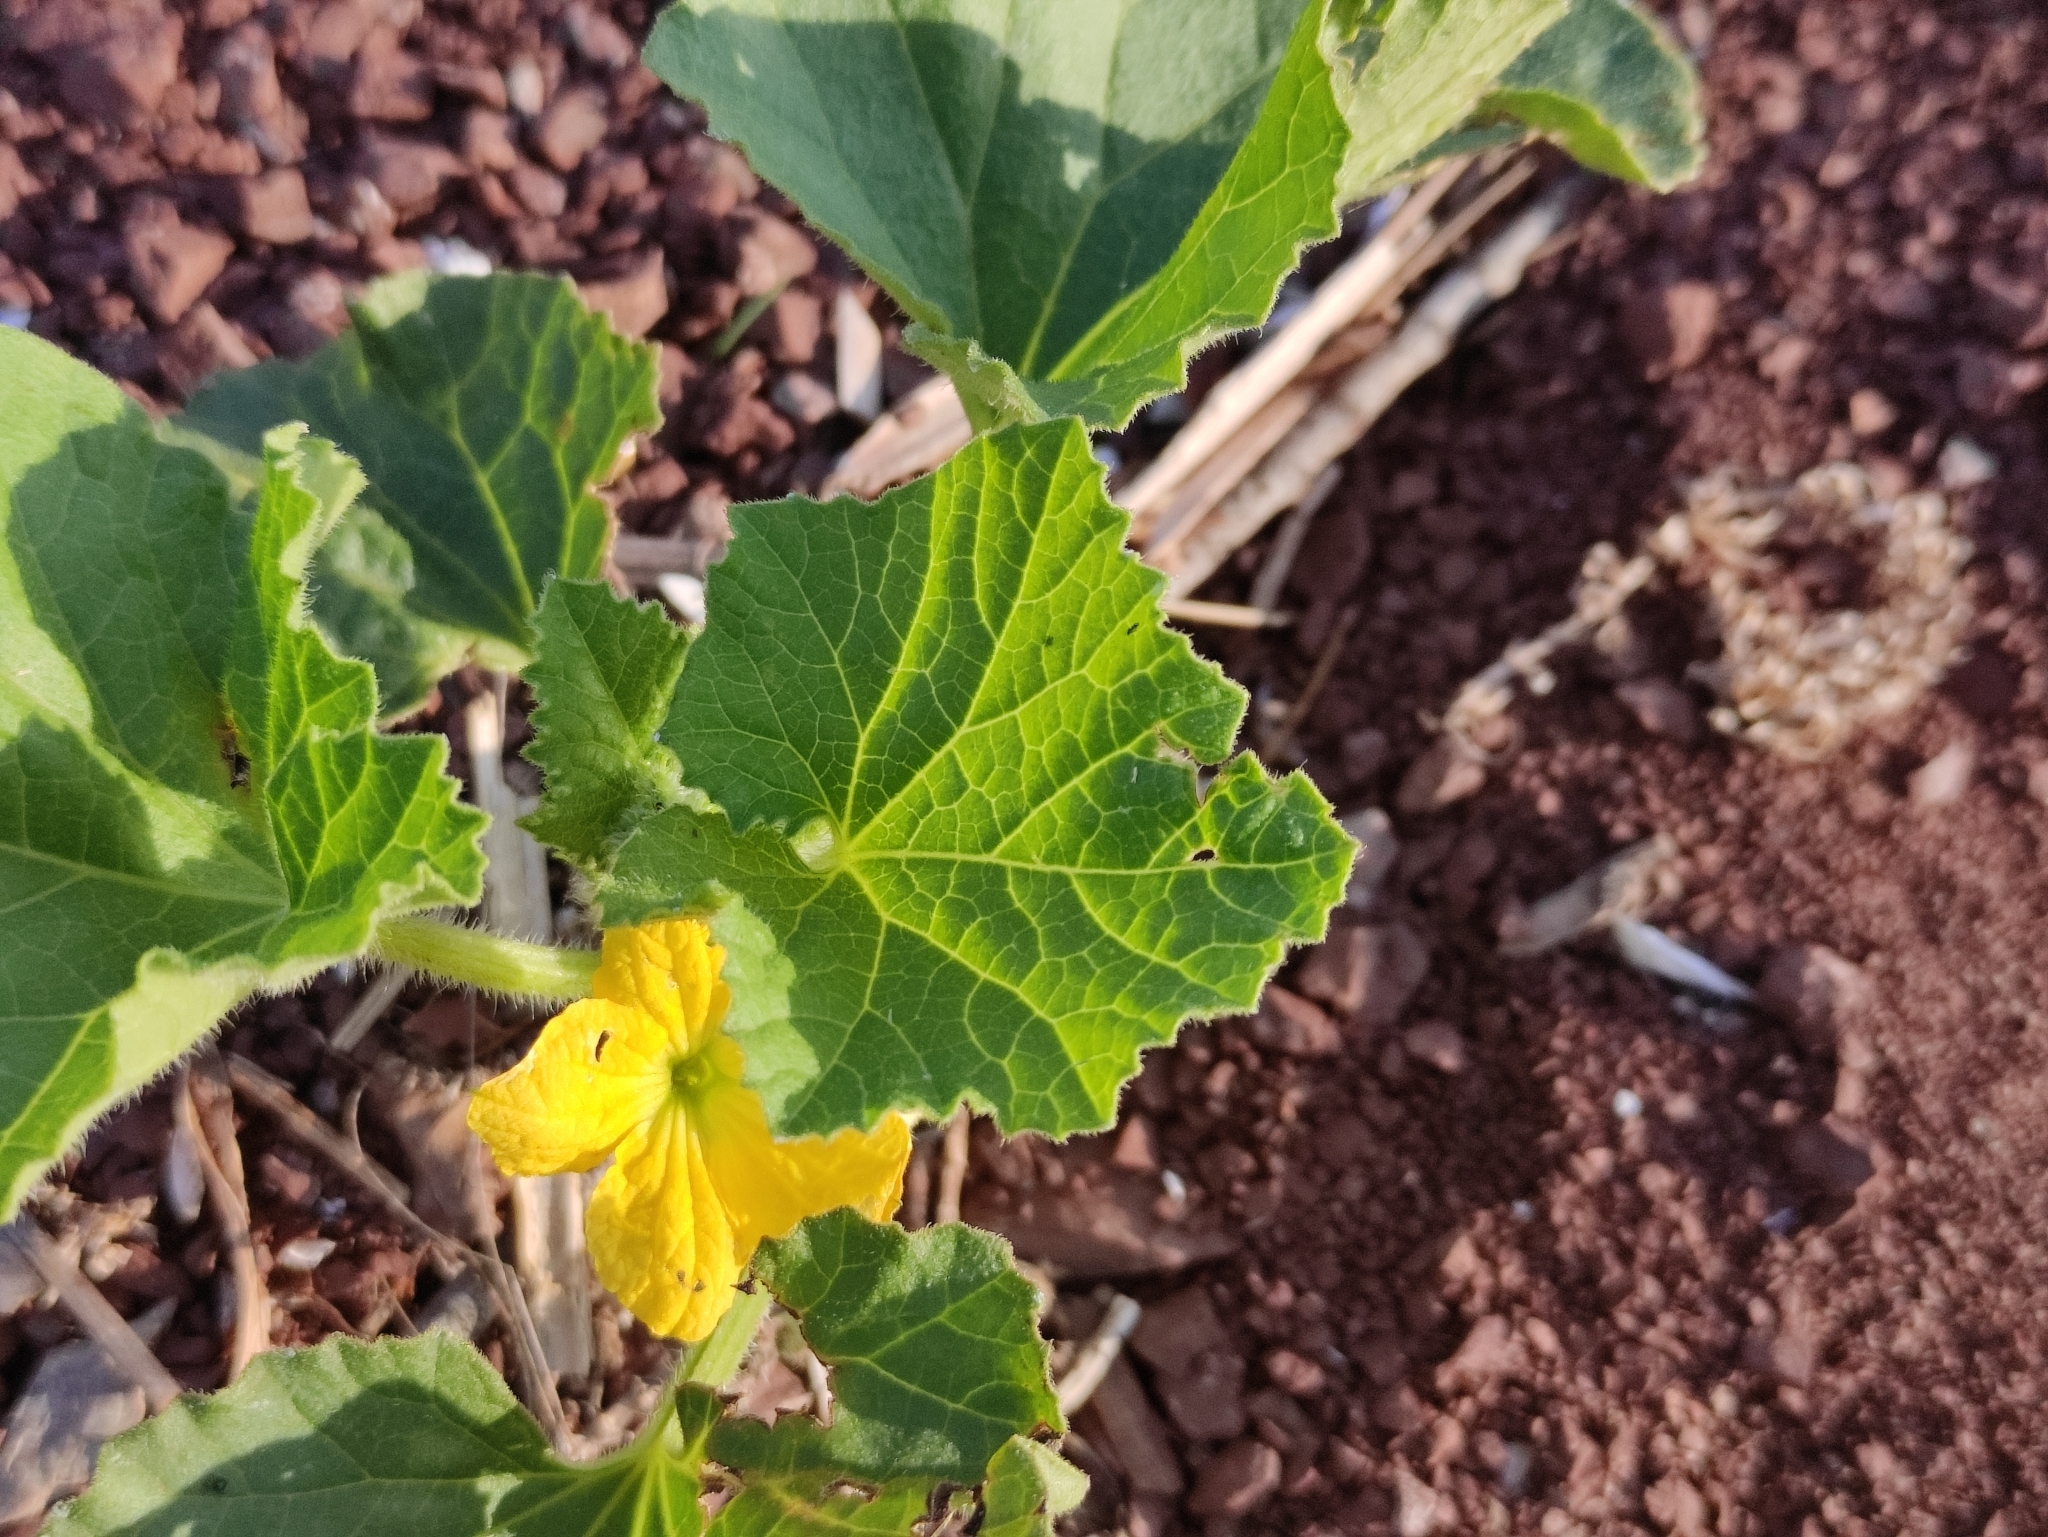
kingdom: Plantae
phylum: Tracheophyta
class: Magnoliopsida
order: Cucurbitales
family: Cucurbitaceae
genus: Cucumis
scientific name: Cucumis melo
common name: Melon
